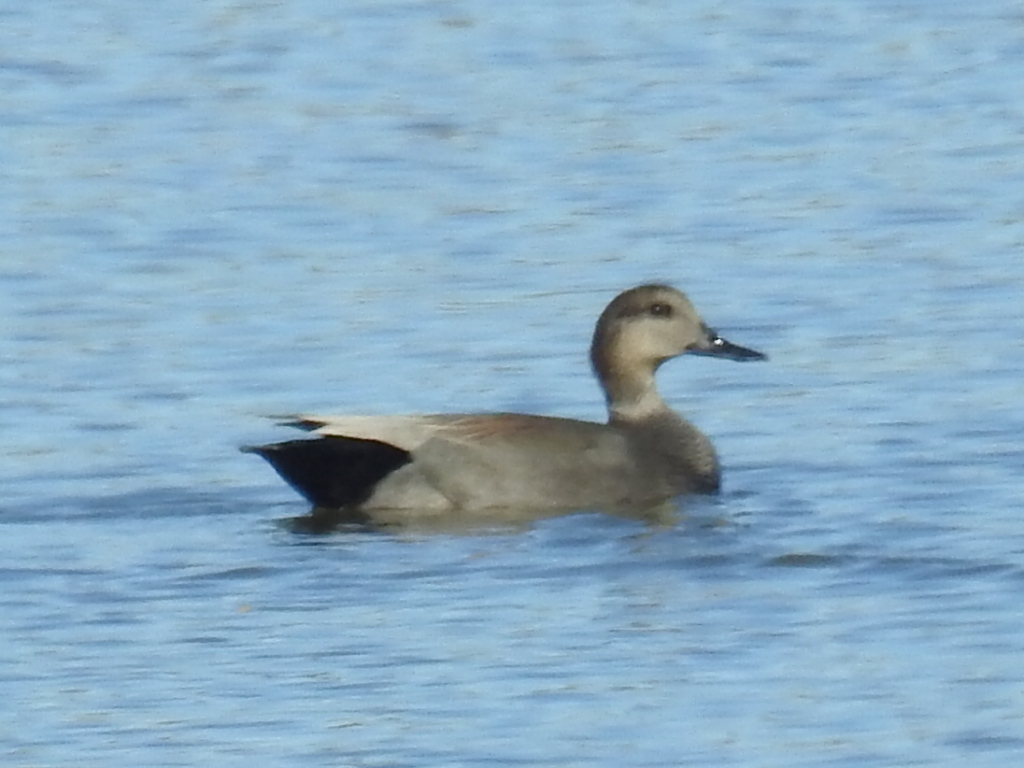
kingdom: Animalia
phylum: Chordata
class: Aves
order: Anseriformes
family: Anatidae
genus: Mareca
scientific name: Mareca strepera
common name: Gadwall
